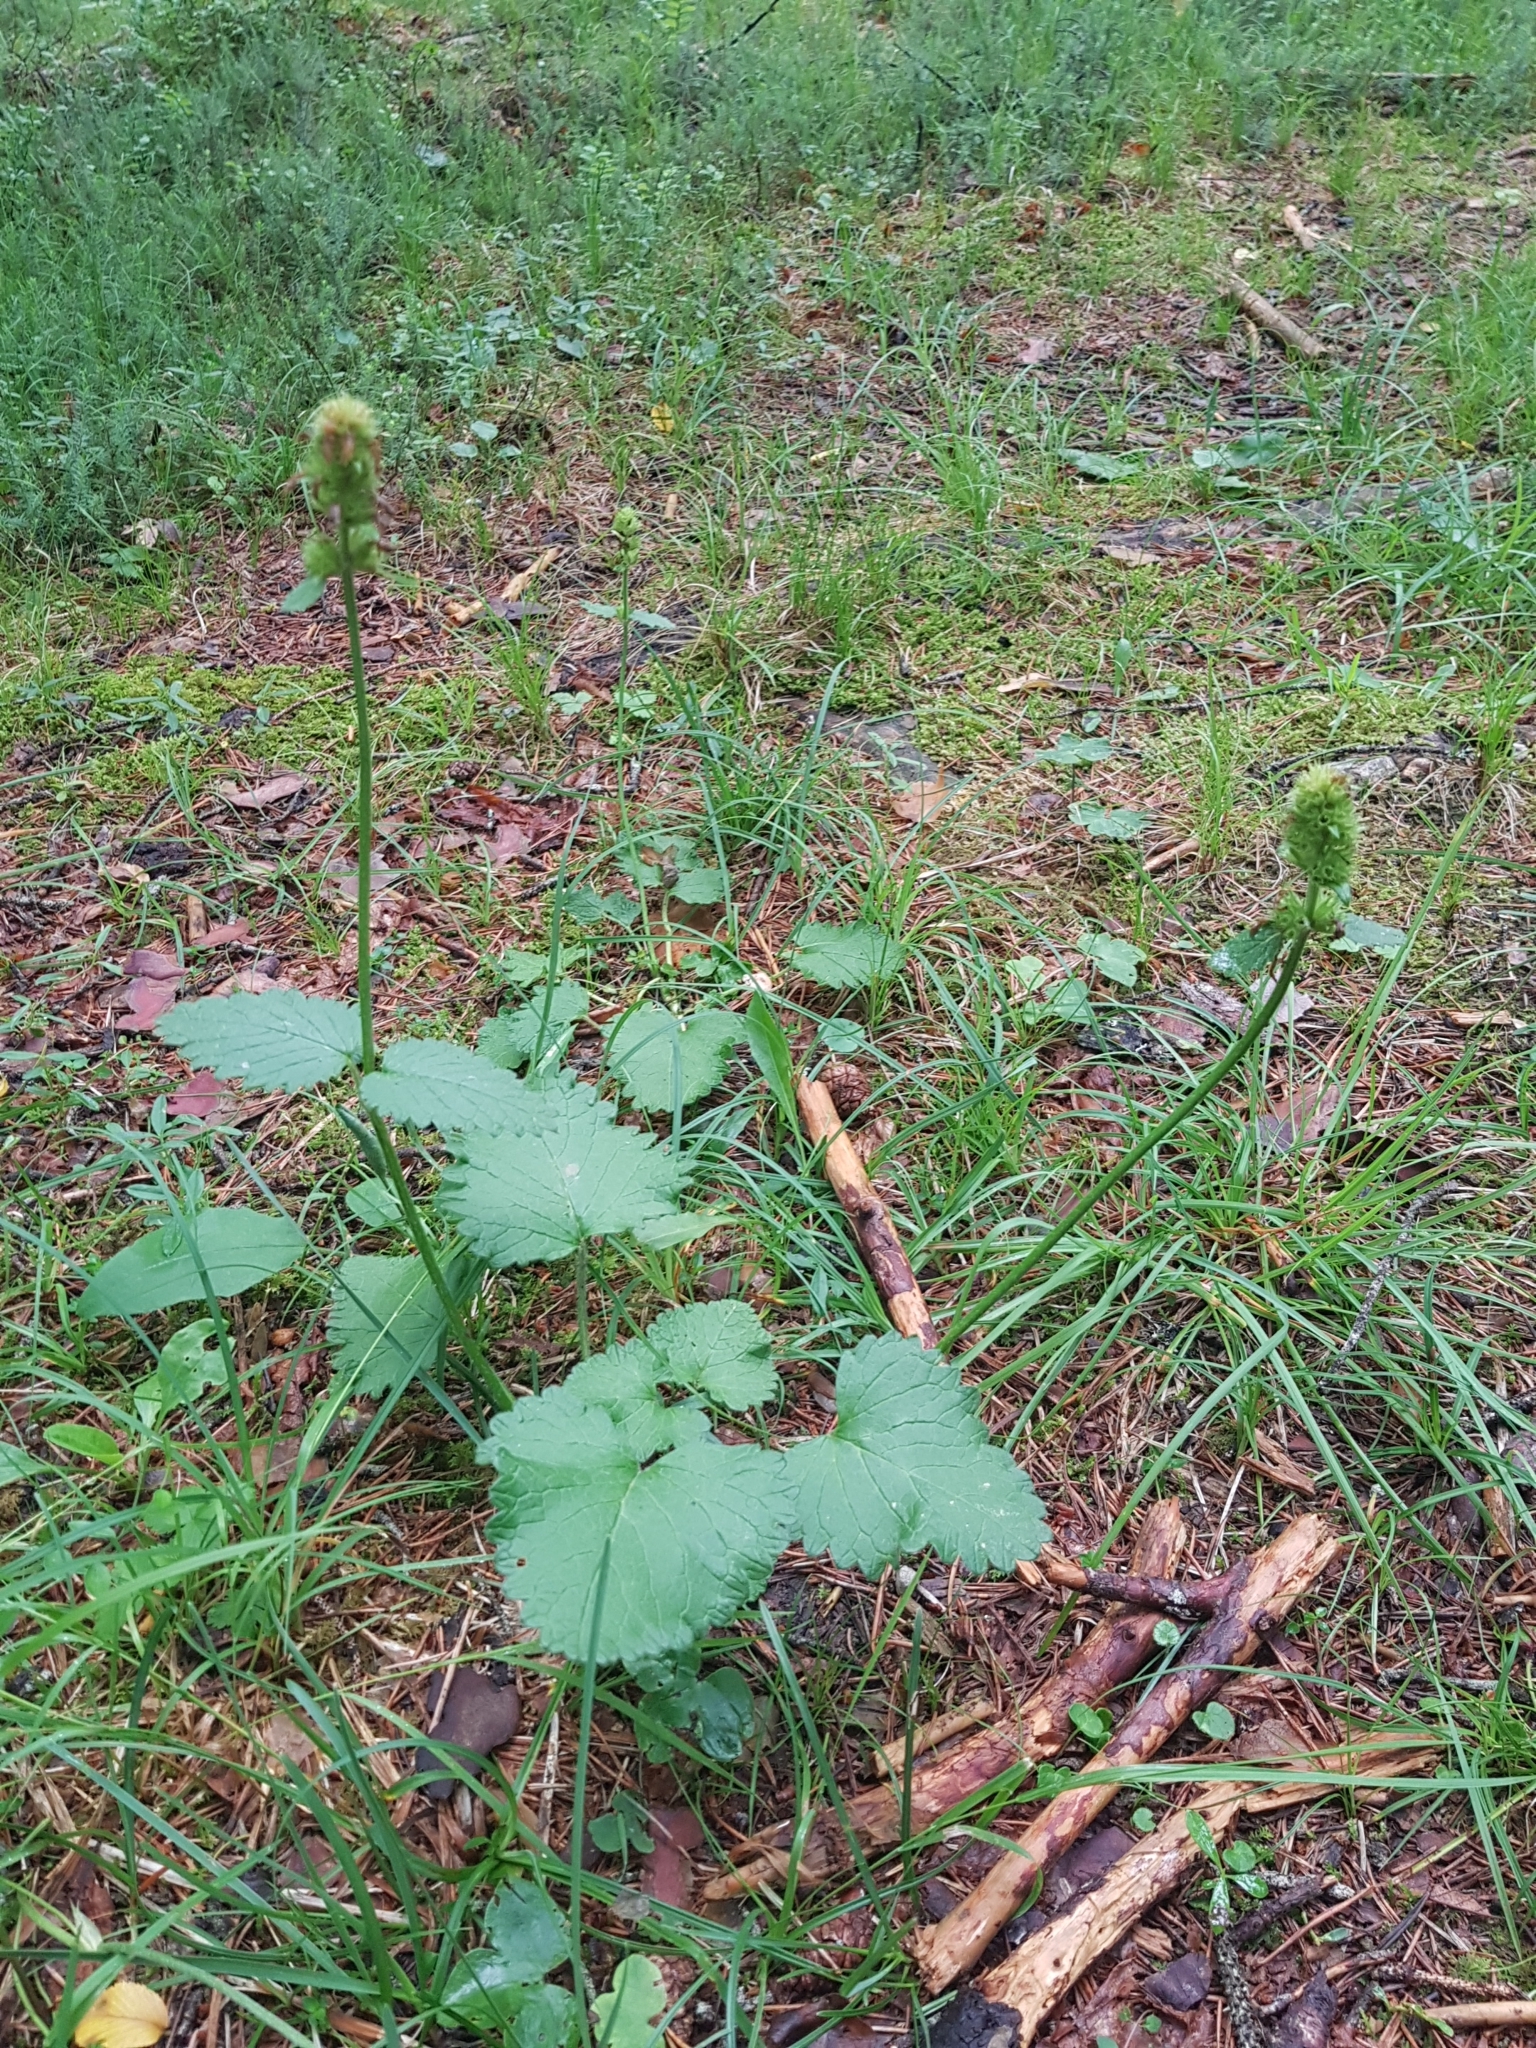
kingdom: Plantae
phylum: Tracheophyta
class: Magnoliopsida
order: Lamiales
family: Lamiaceae
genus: Betonica
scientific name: Betonica alopecuros
